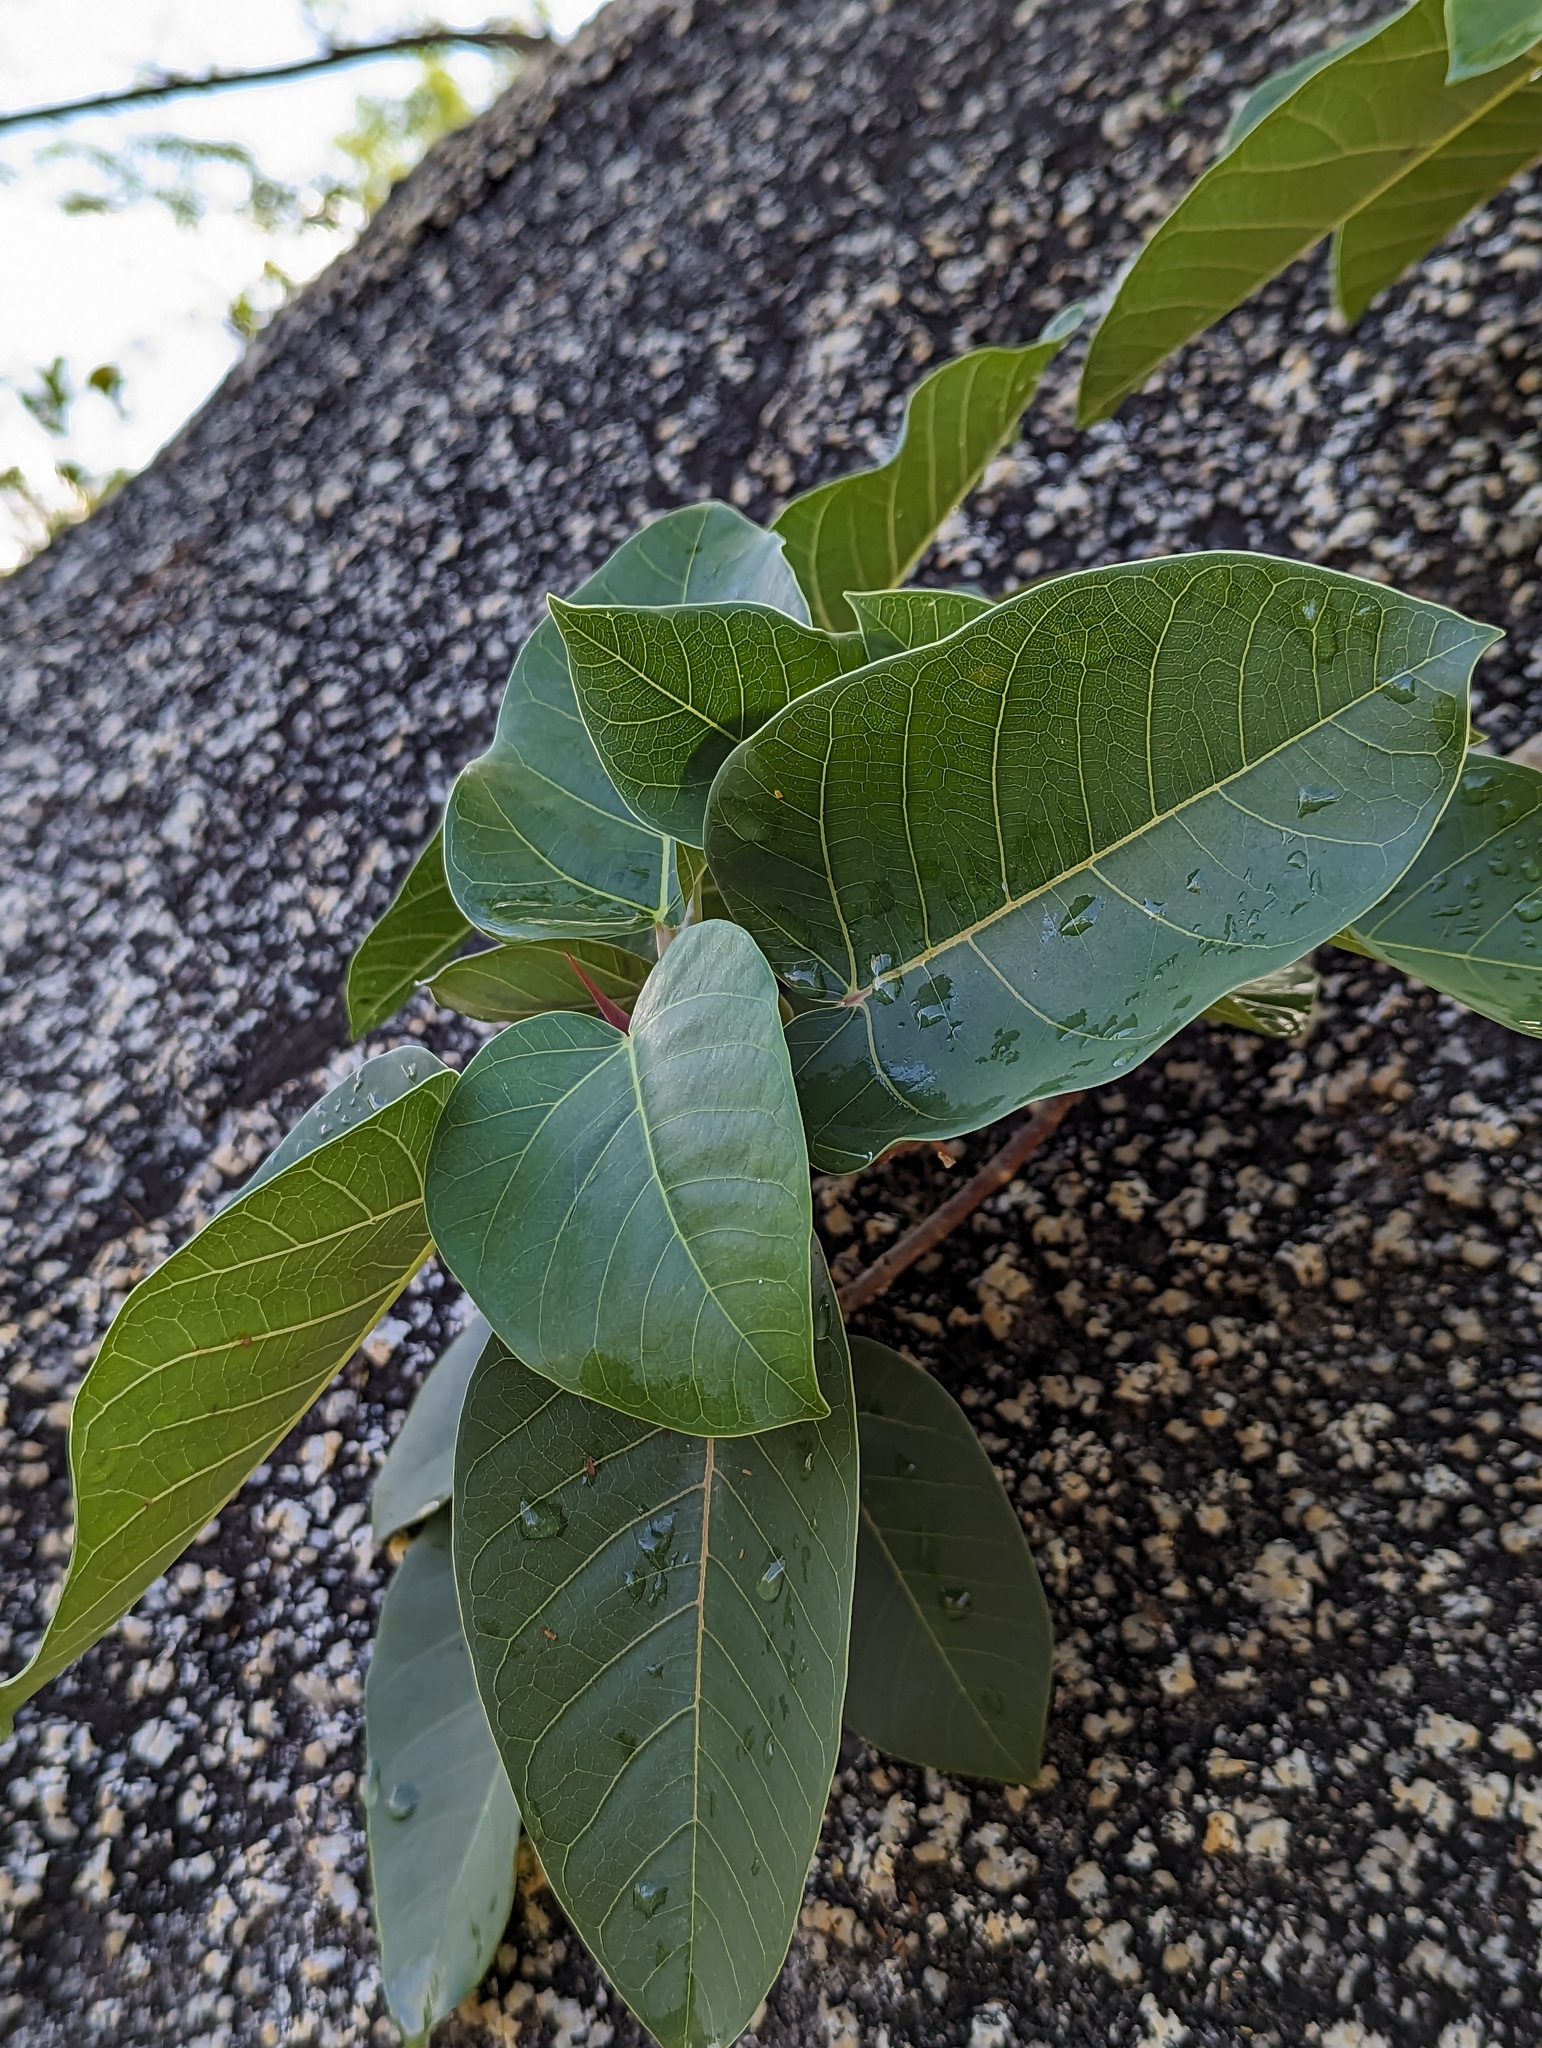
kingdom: Plantae
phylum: Tracheophyta
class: Magnoliopsida
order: Rosales
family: Moraceae
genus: Ficus
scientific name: Ficus petiolaris
